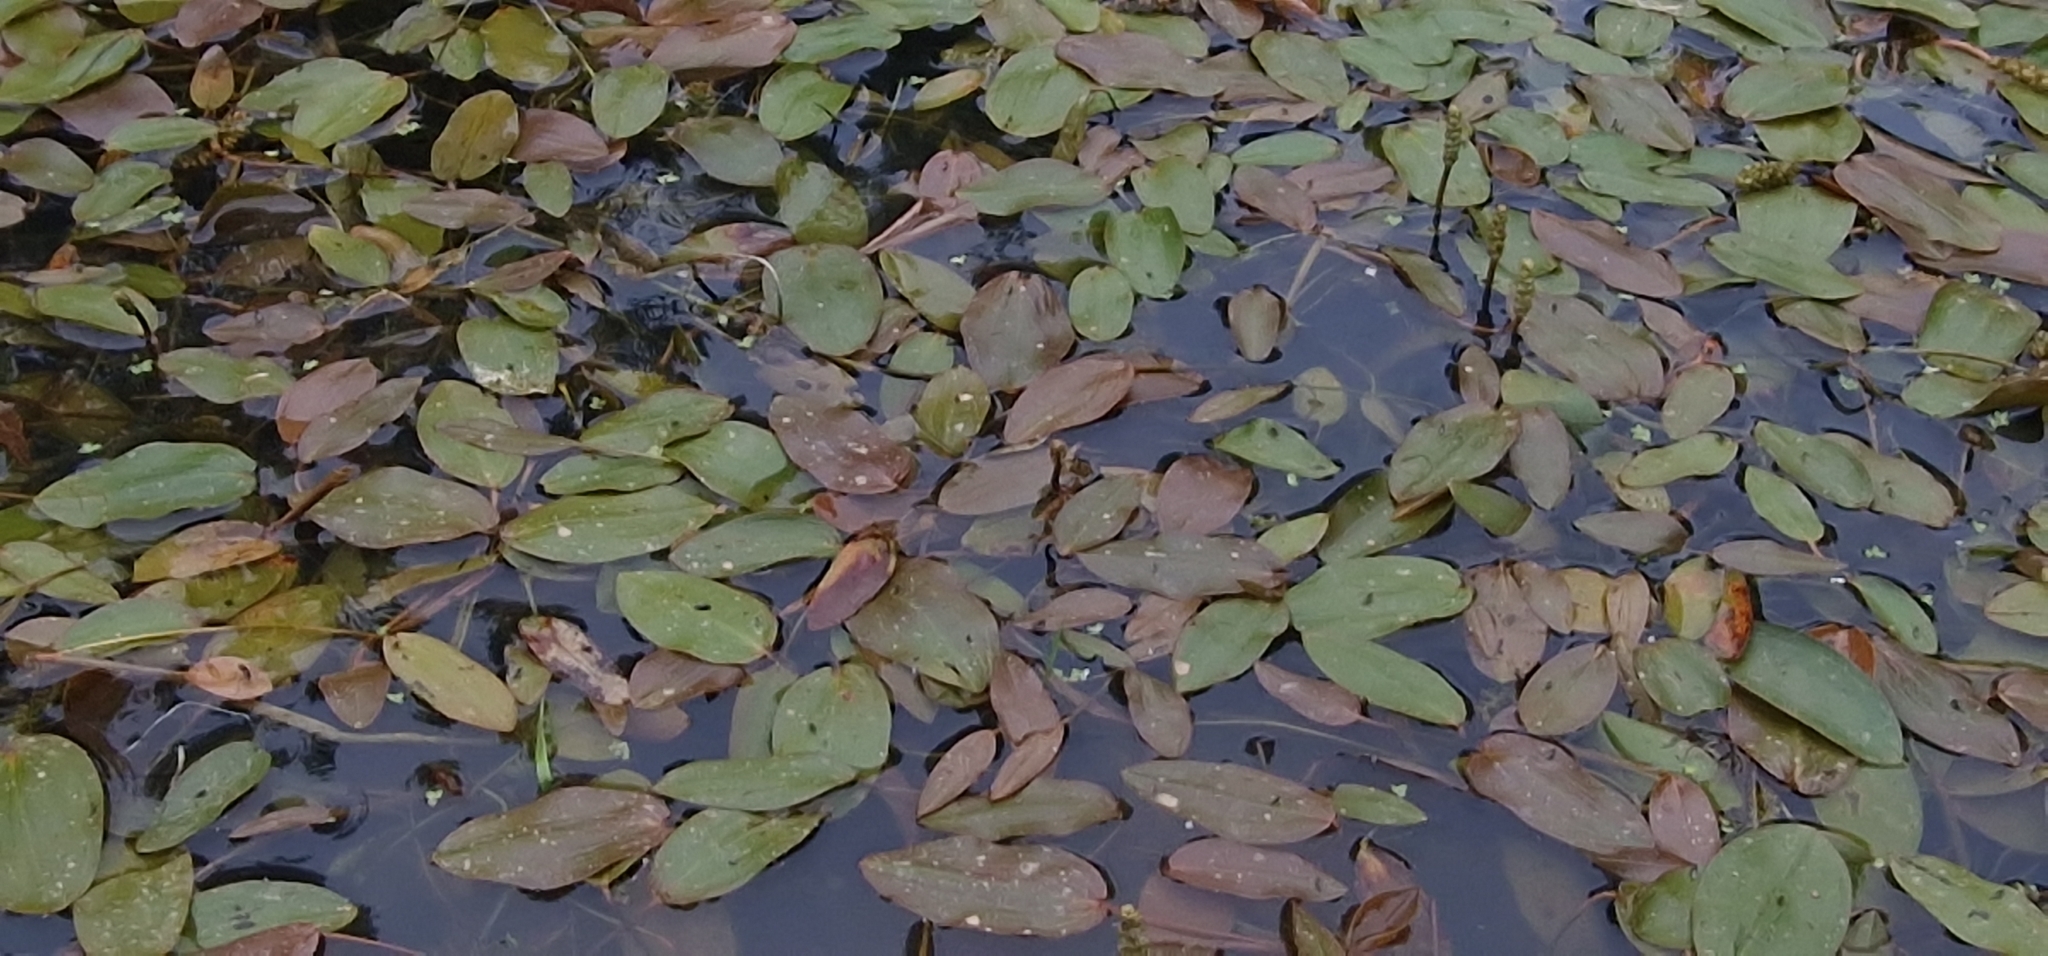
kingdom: Plantae
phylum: Tracheophyta
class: Liliopsida
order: Alismatales
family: Potamogetonaceae
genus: Potamogeton
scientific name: Potamogeton natans
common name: Broad-leaved pondweed
